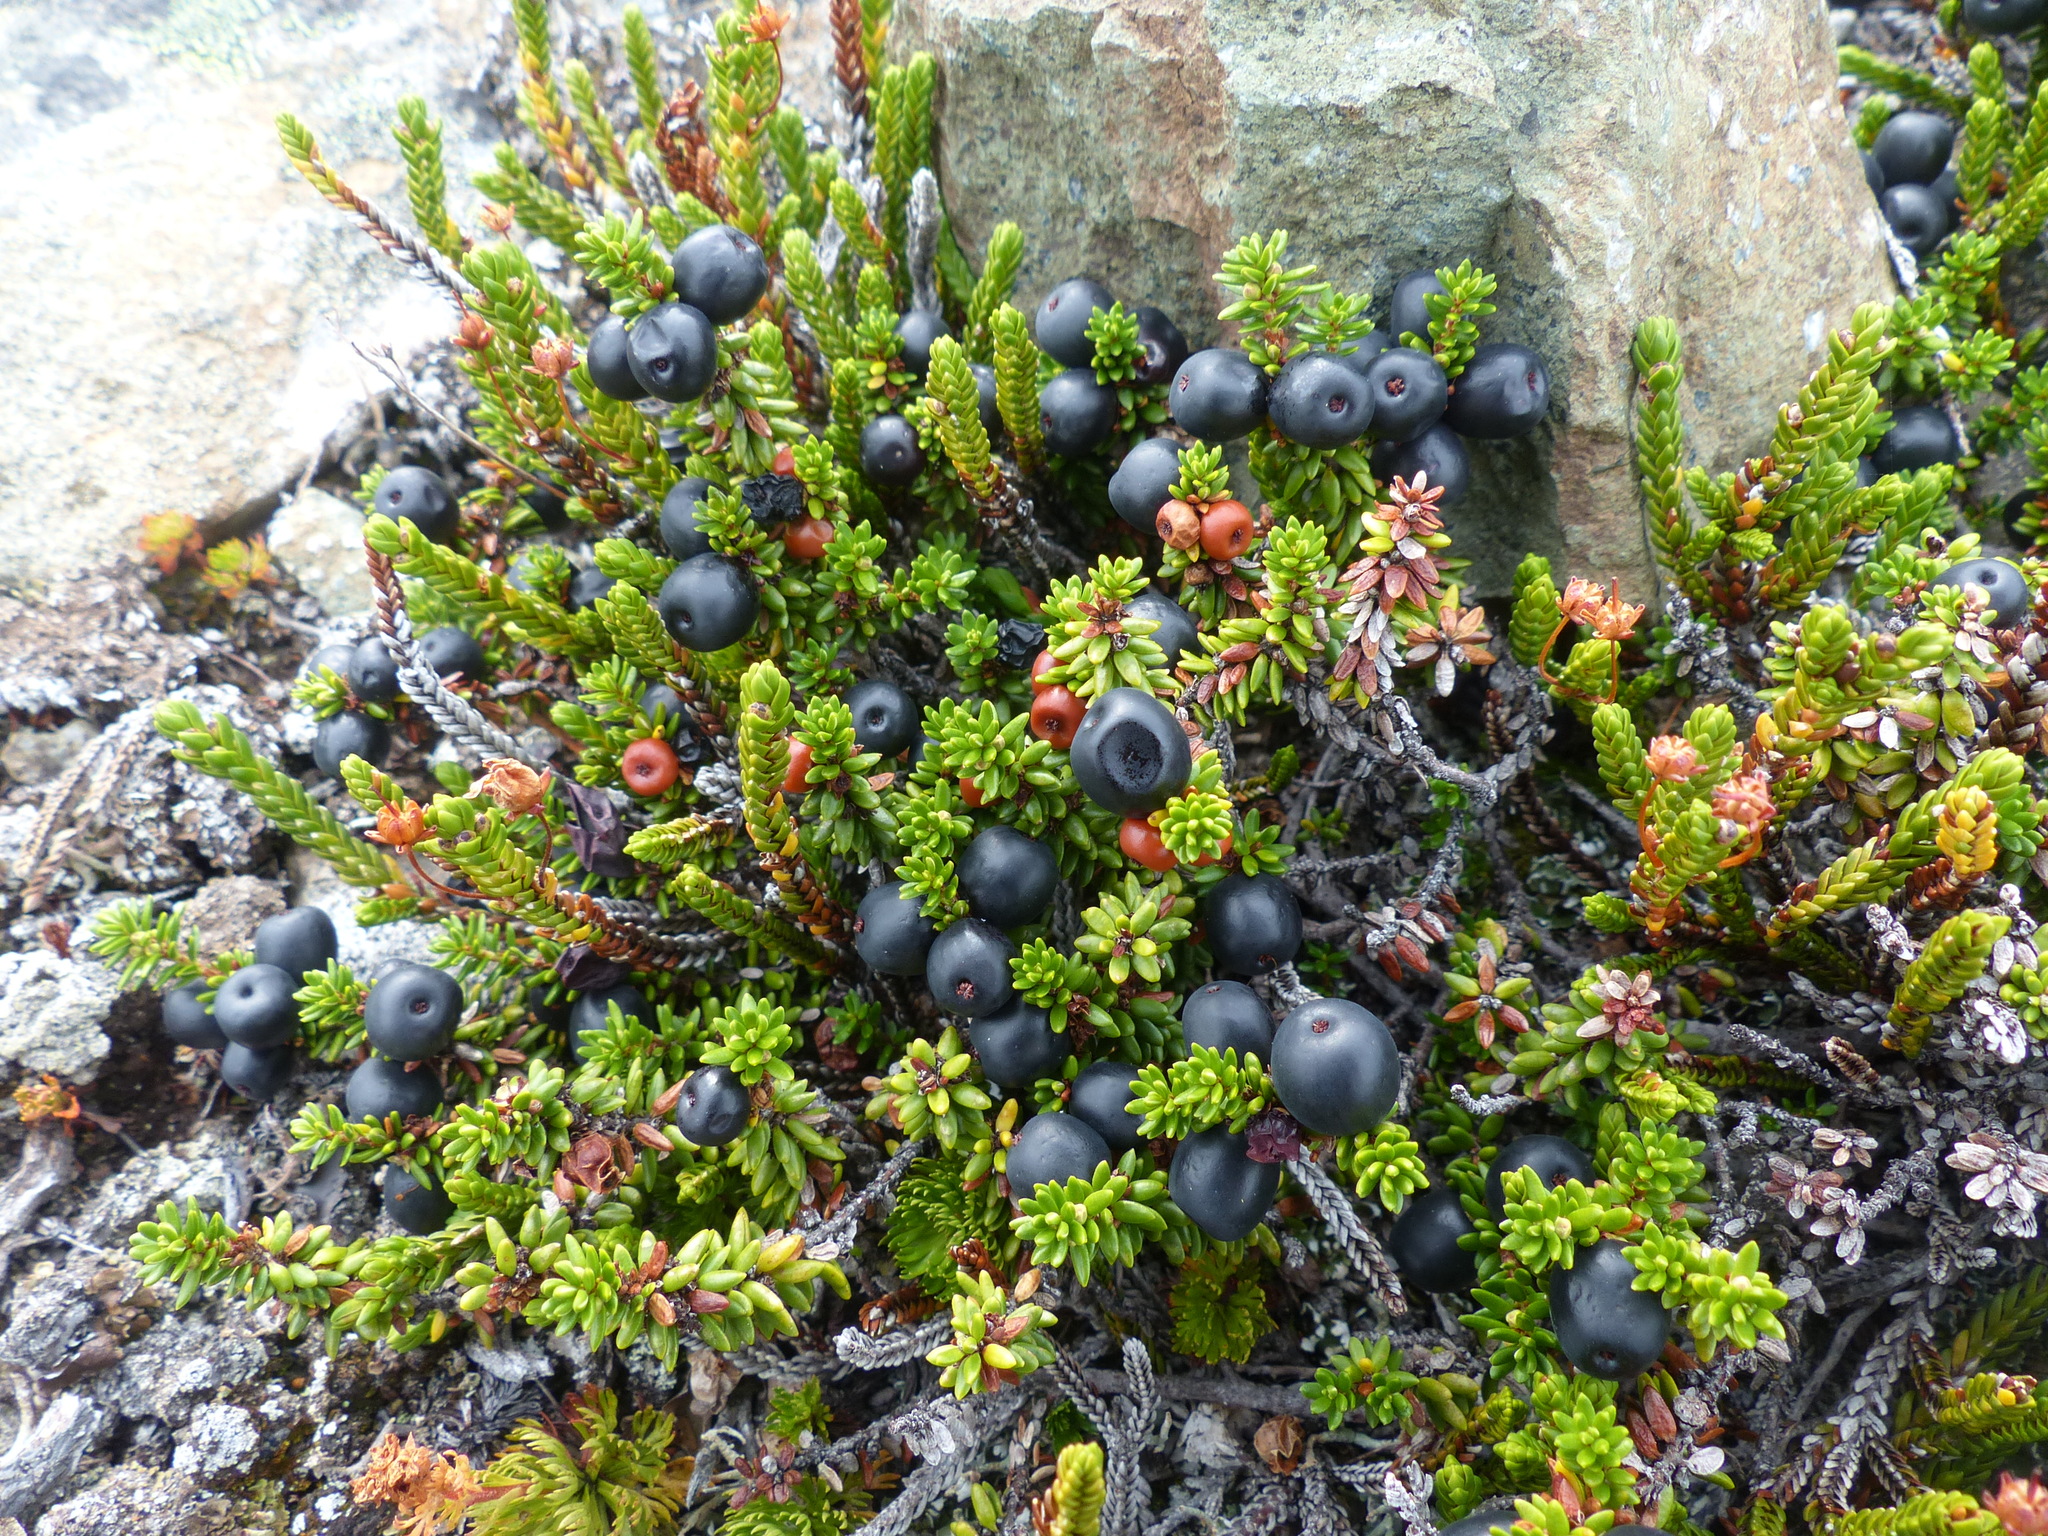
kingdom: Plantae
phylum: Tracheophyta
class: Magnoliopsida
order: Ericales
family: Ericaceae
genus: Empetrum
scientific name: Empetrum nigrum
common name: Black crowberry
